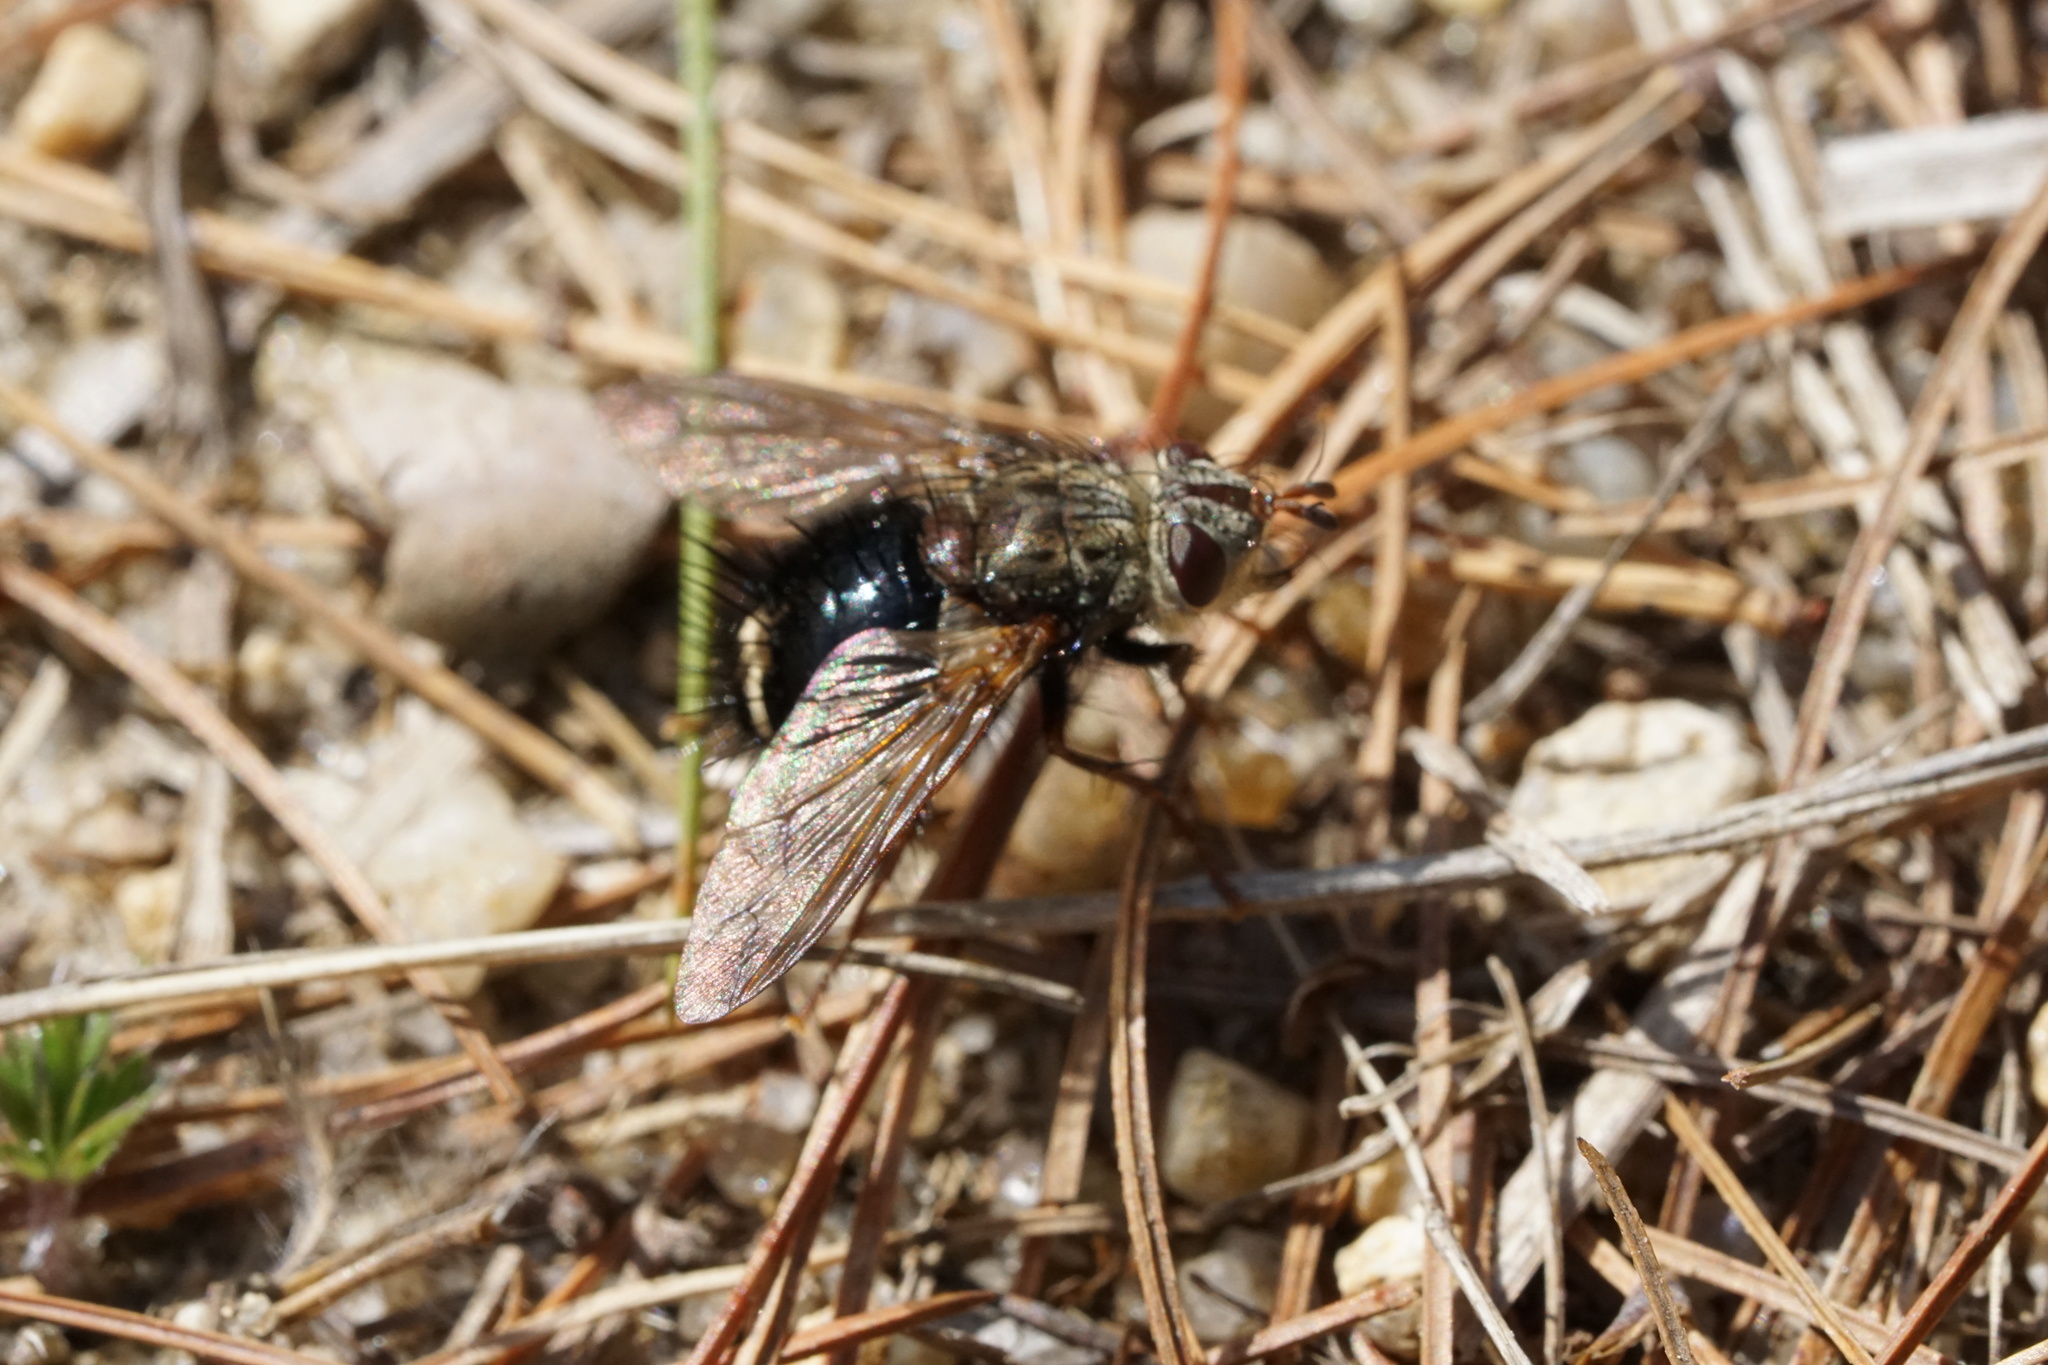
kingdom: Animalia
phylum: Arthropoda
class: Insecta
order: Diptera
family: Tachinidae
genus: Epalpus
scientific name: Epalpus signifer
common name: Early tachinid fly
